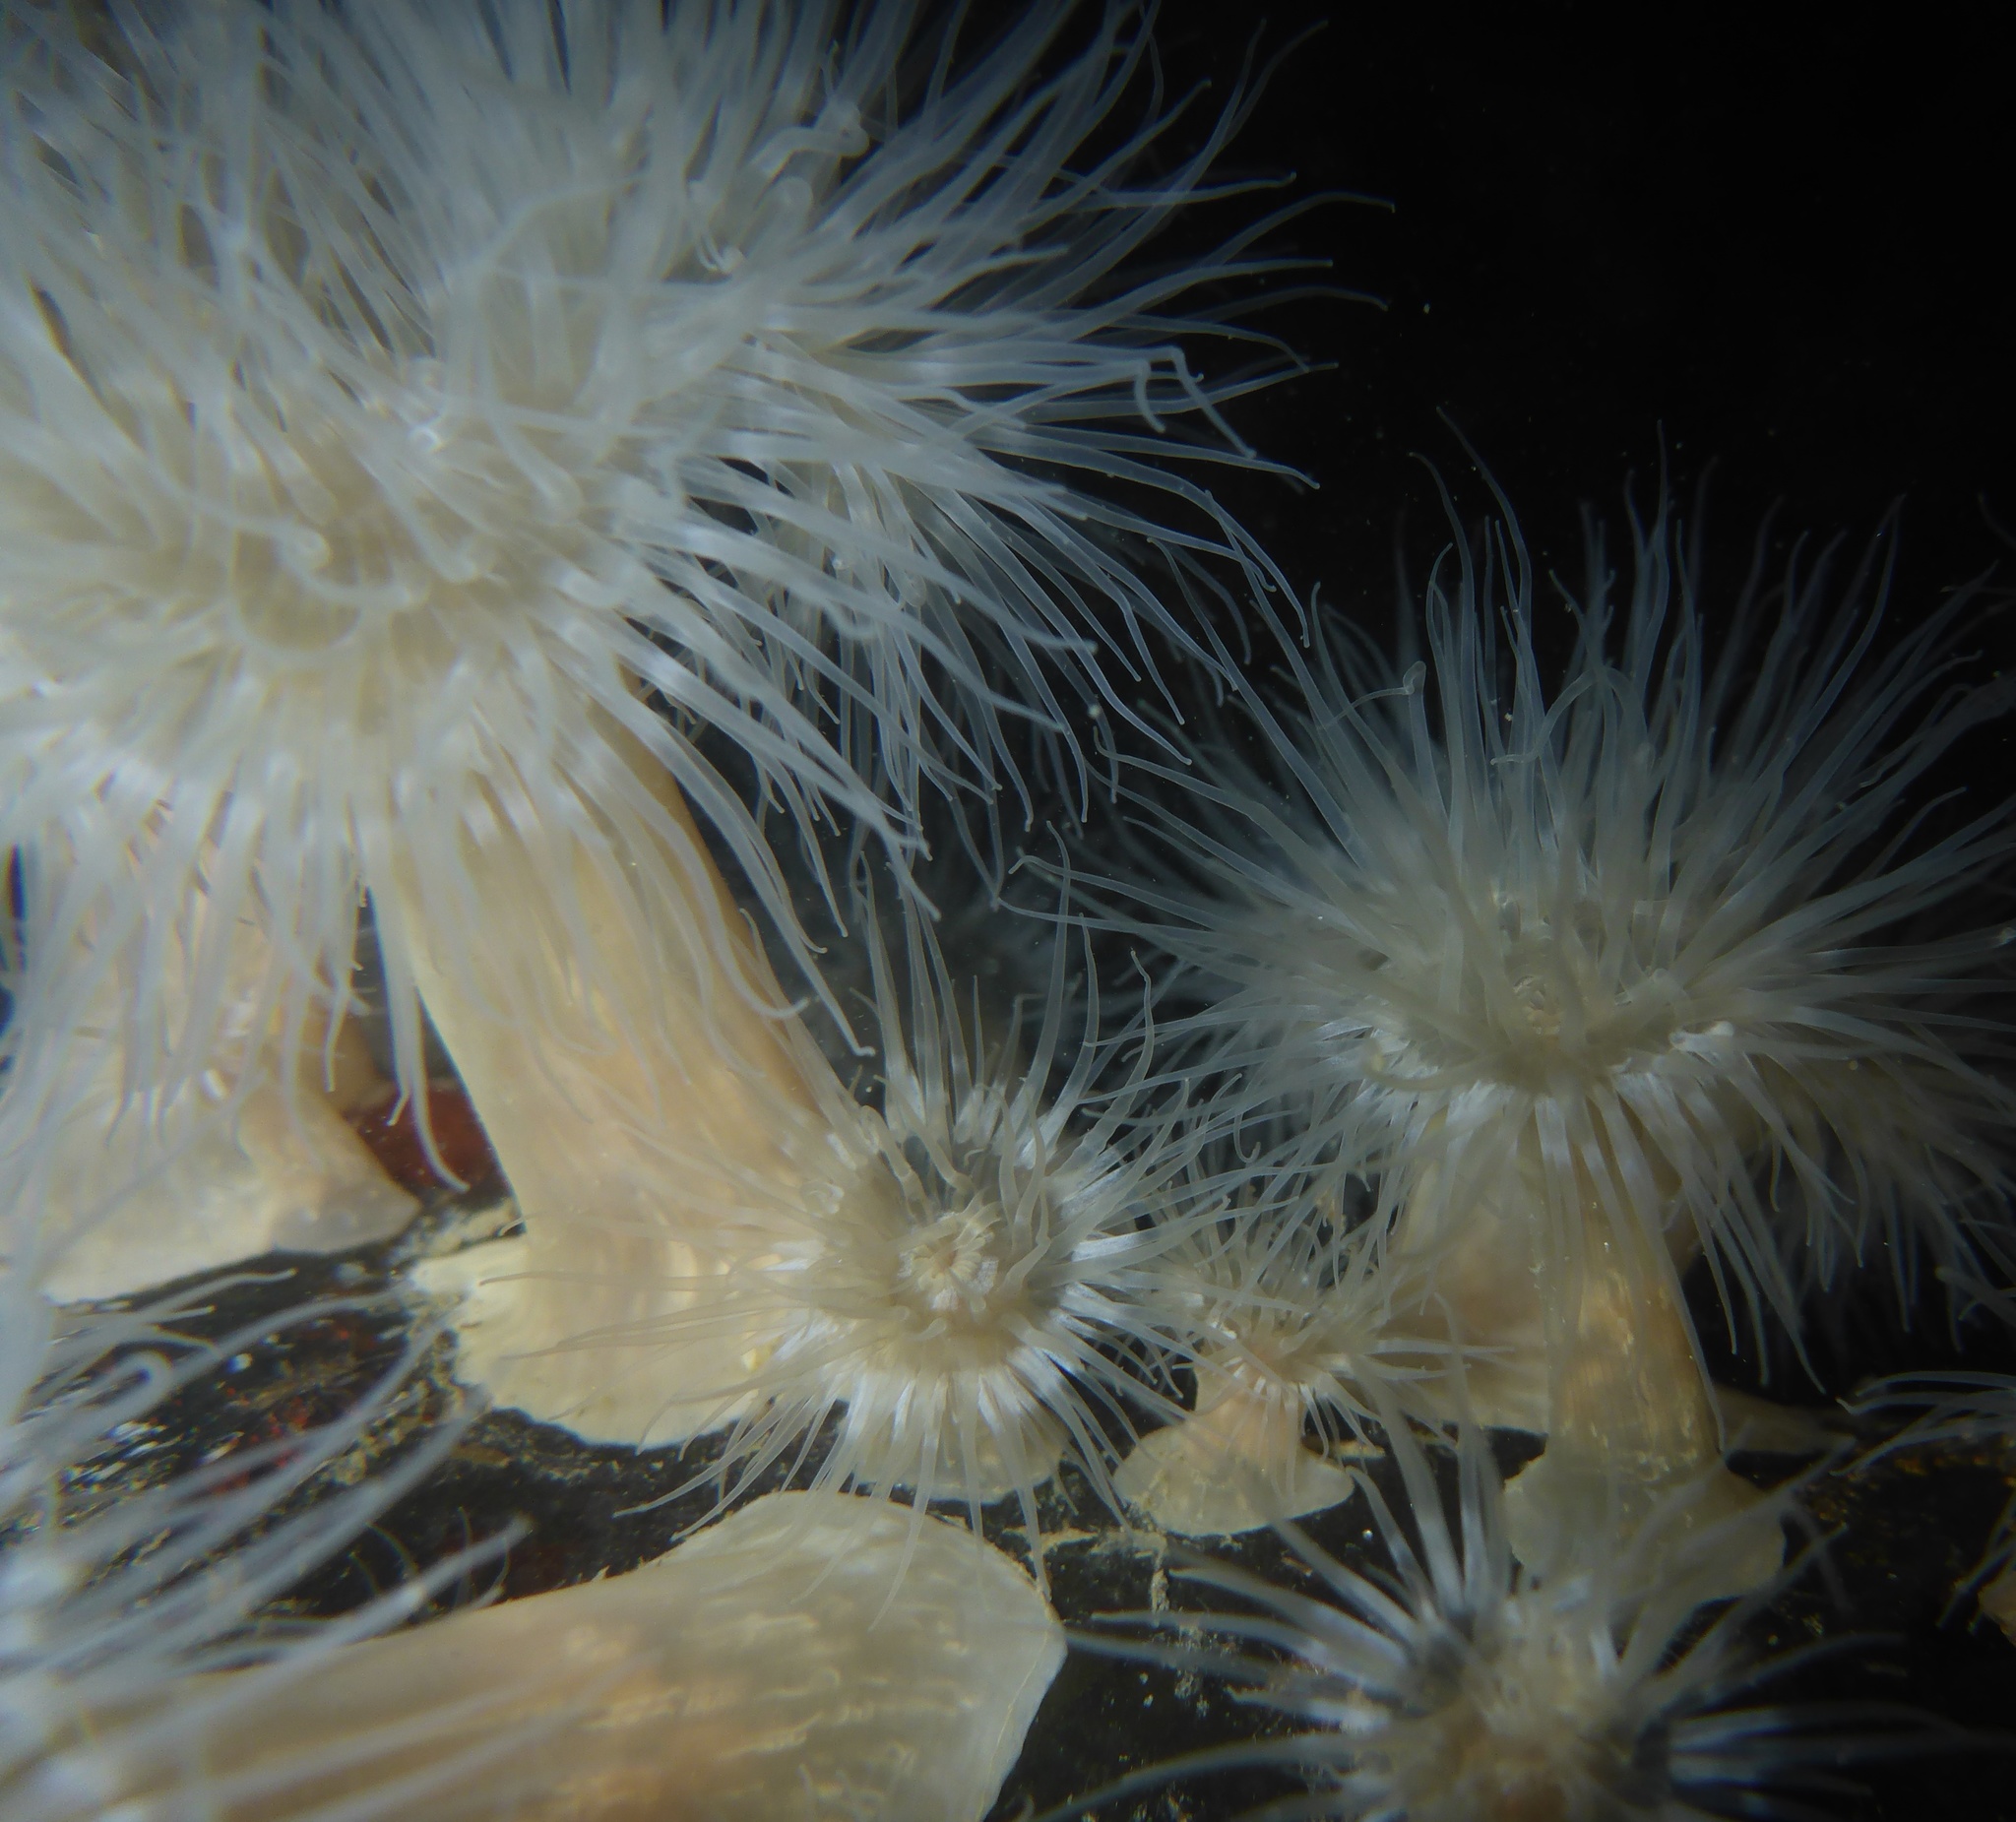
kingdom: Animalia
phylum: Cnidaria
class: Anthozoa
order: Actiniaria
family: Metridiidae
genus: Metridium
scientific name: Metridium senile
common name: Clonal plumose anemone
